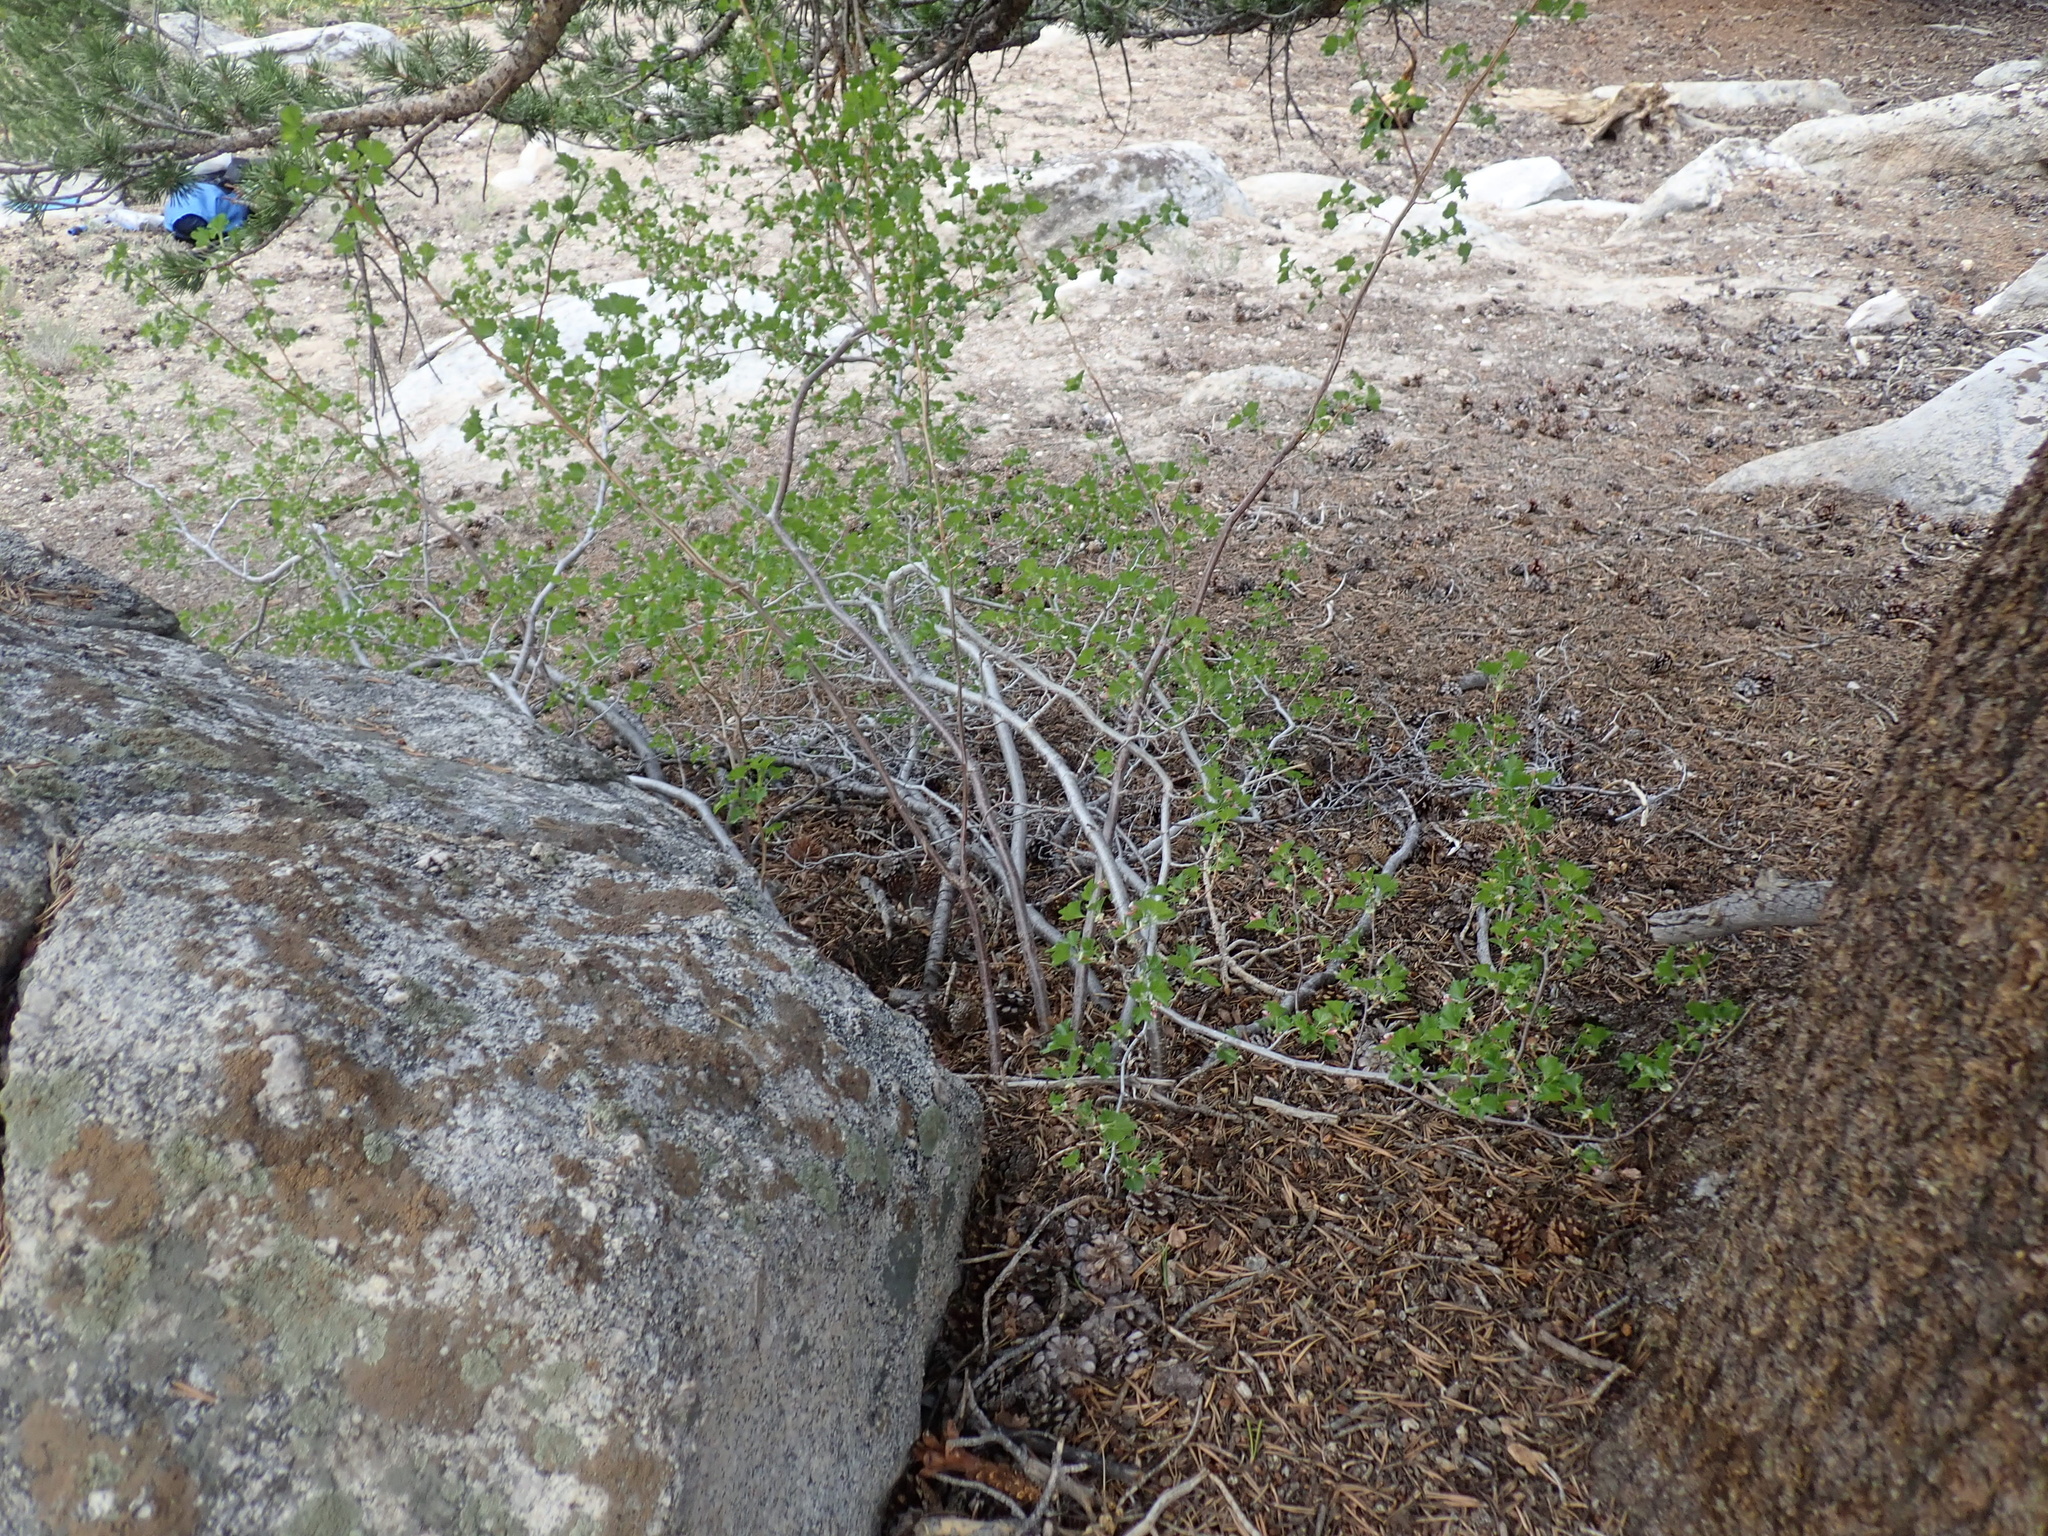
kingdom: Plantae
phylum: Tracheophyta
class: Magnoliopsida
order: Saxifragales
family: Grossulariaceae
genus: Ribes
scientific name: Ribes cereum
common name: Wax currant
